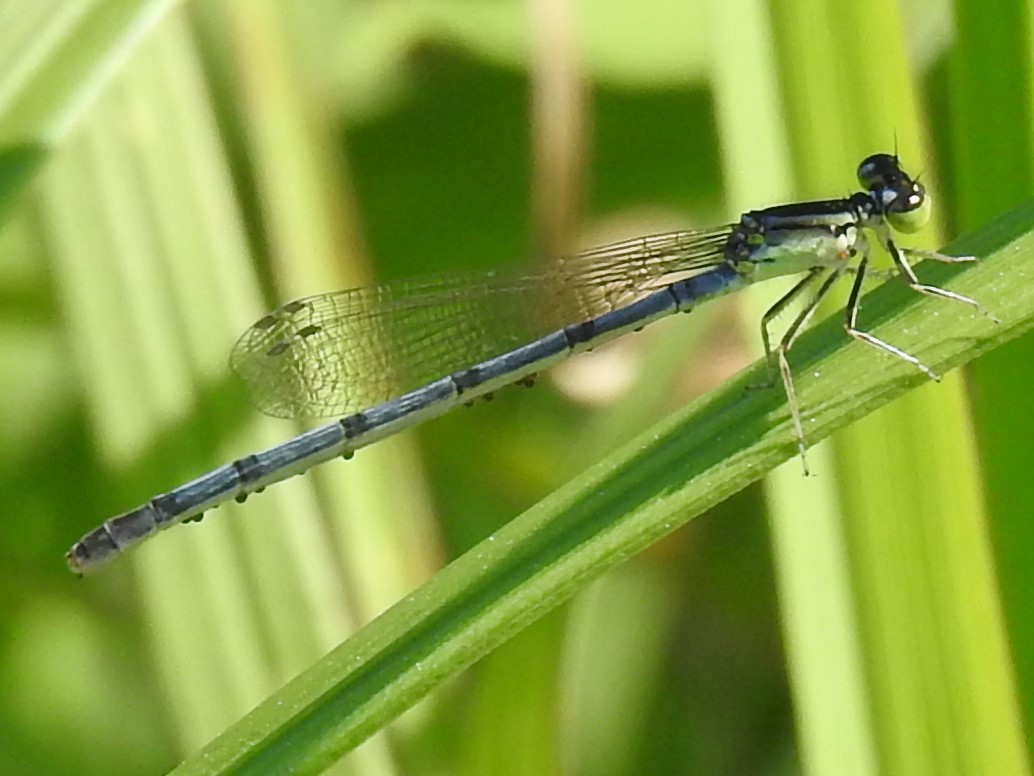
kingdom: Animalia
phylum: Arthropoda
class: Insecta
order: Odonata
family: Coenagrionidae
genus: Ischnura
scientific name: Ischnura verticalis
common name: Eastern forktail
